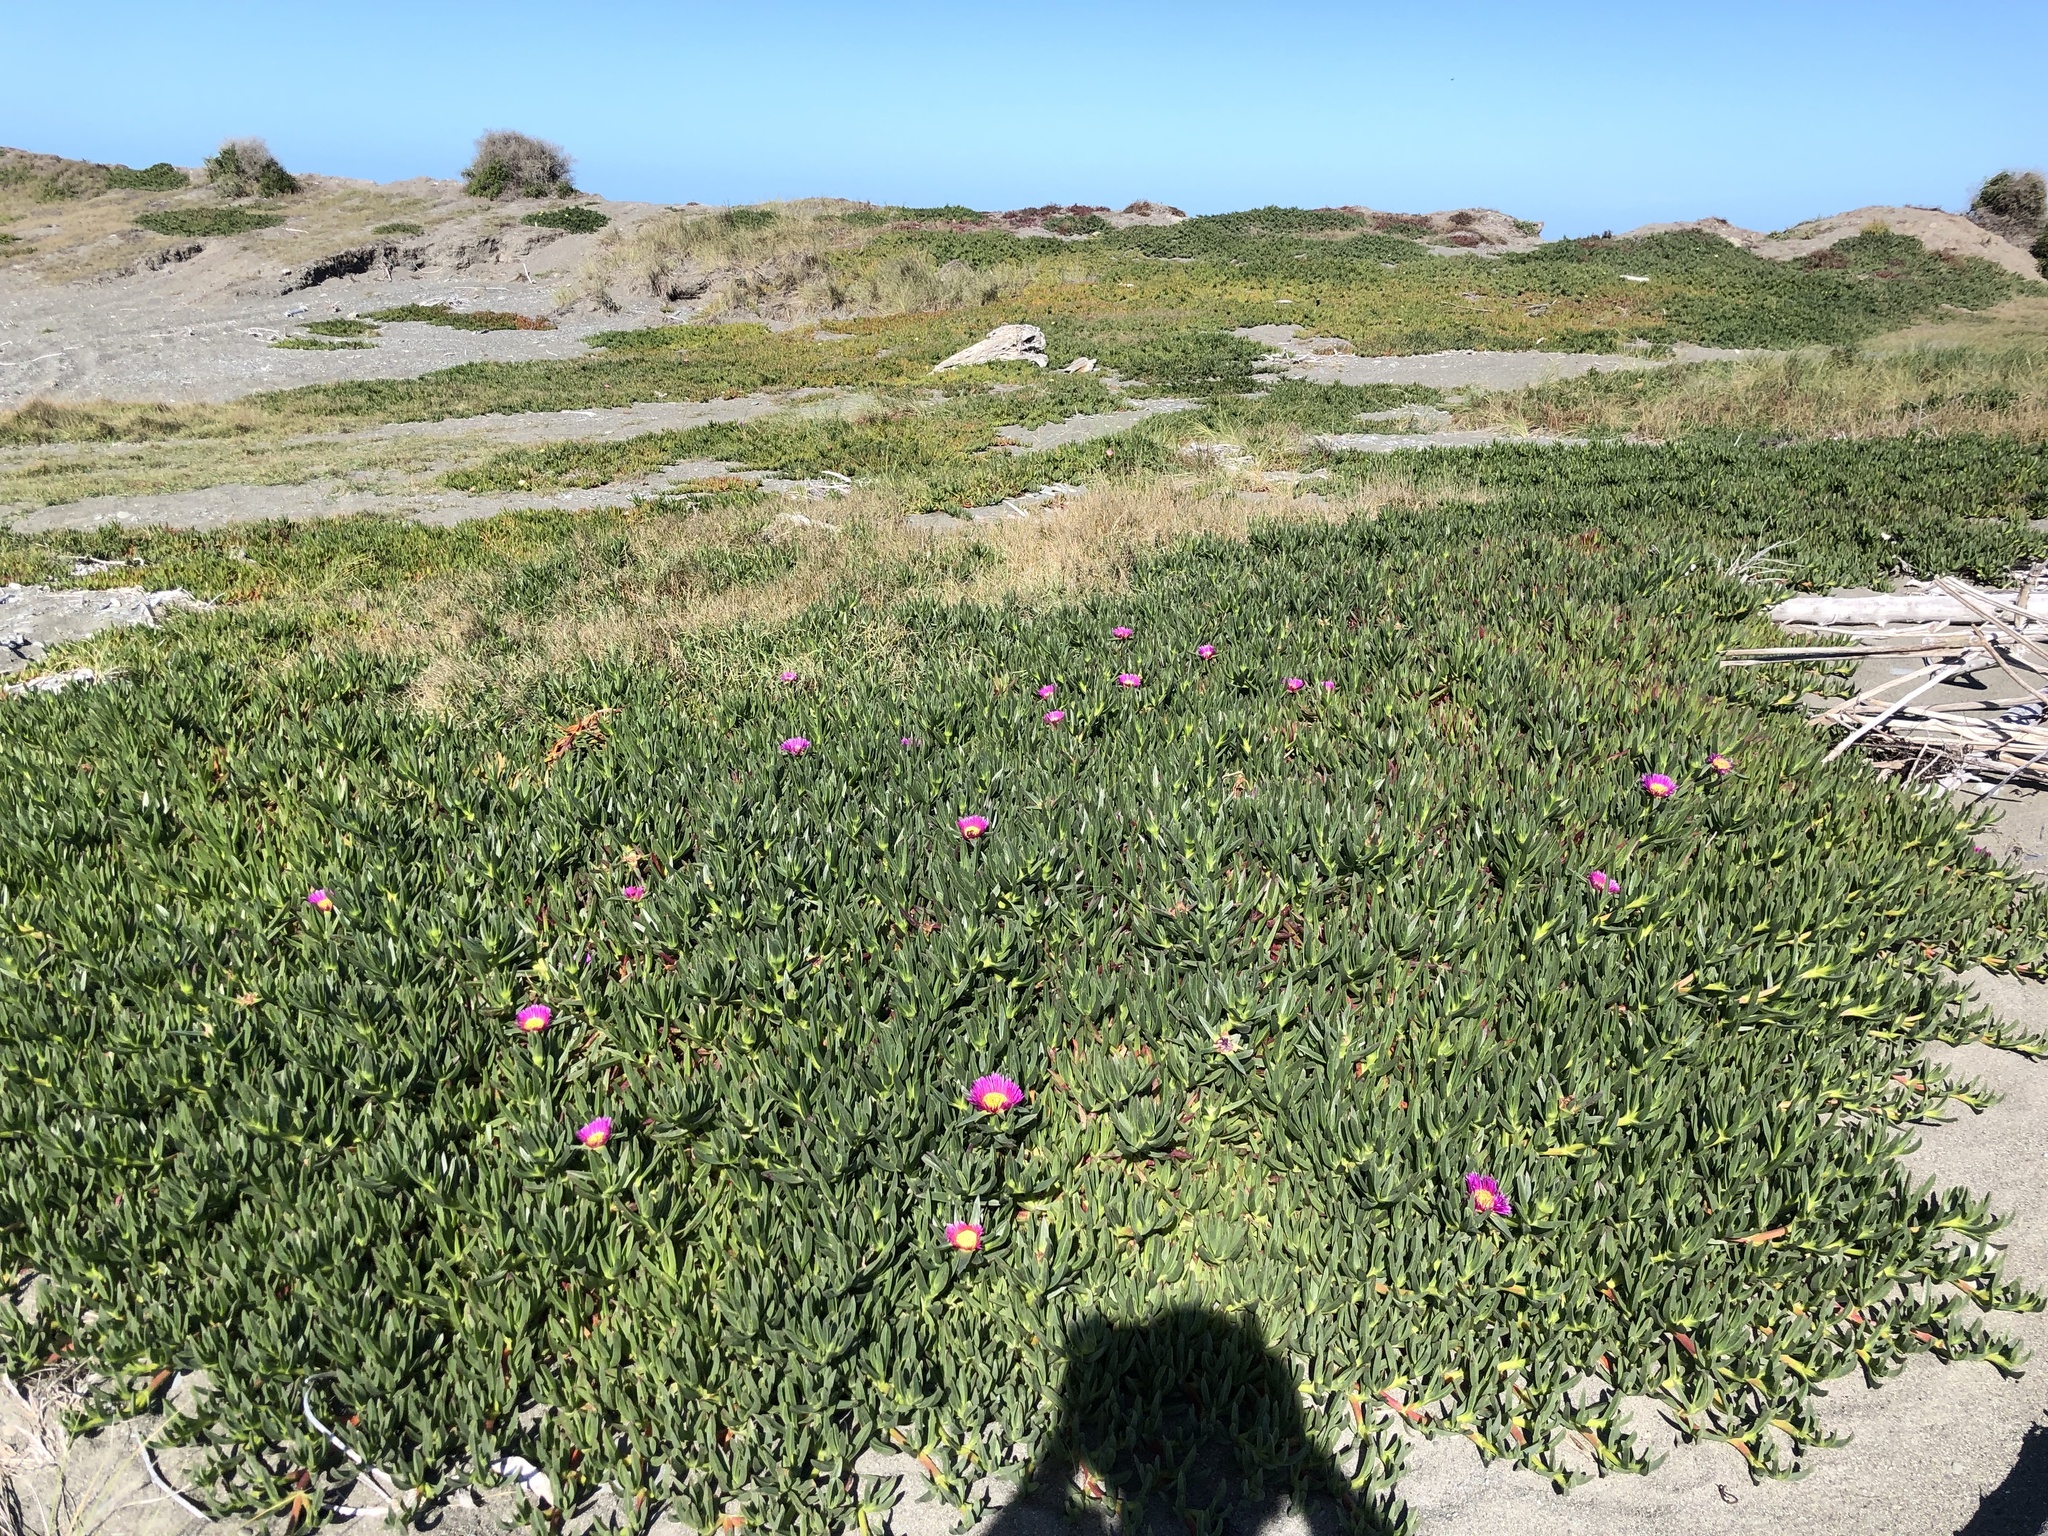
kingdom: Plantae
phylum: Tracheophyta
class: Magnoliopsida
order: Caryophyllales
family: Aizoaceae
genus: Carpobrotus
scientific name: Carpobrotus chilensis
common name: Sea fig
